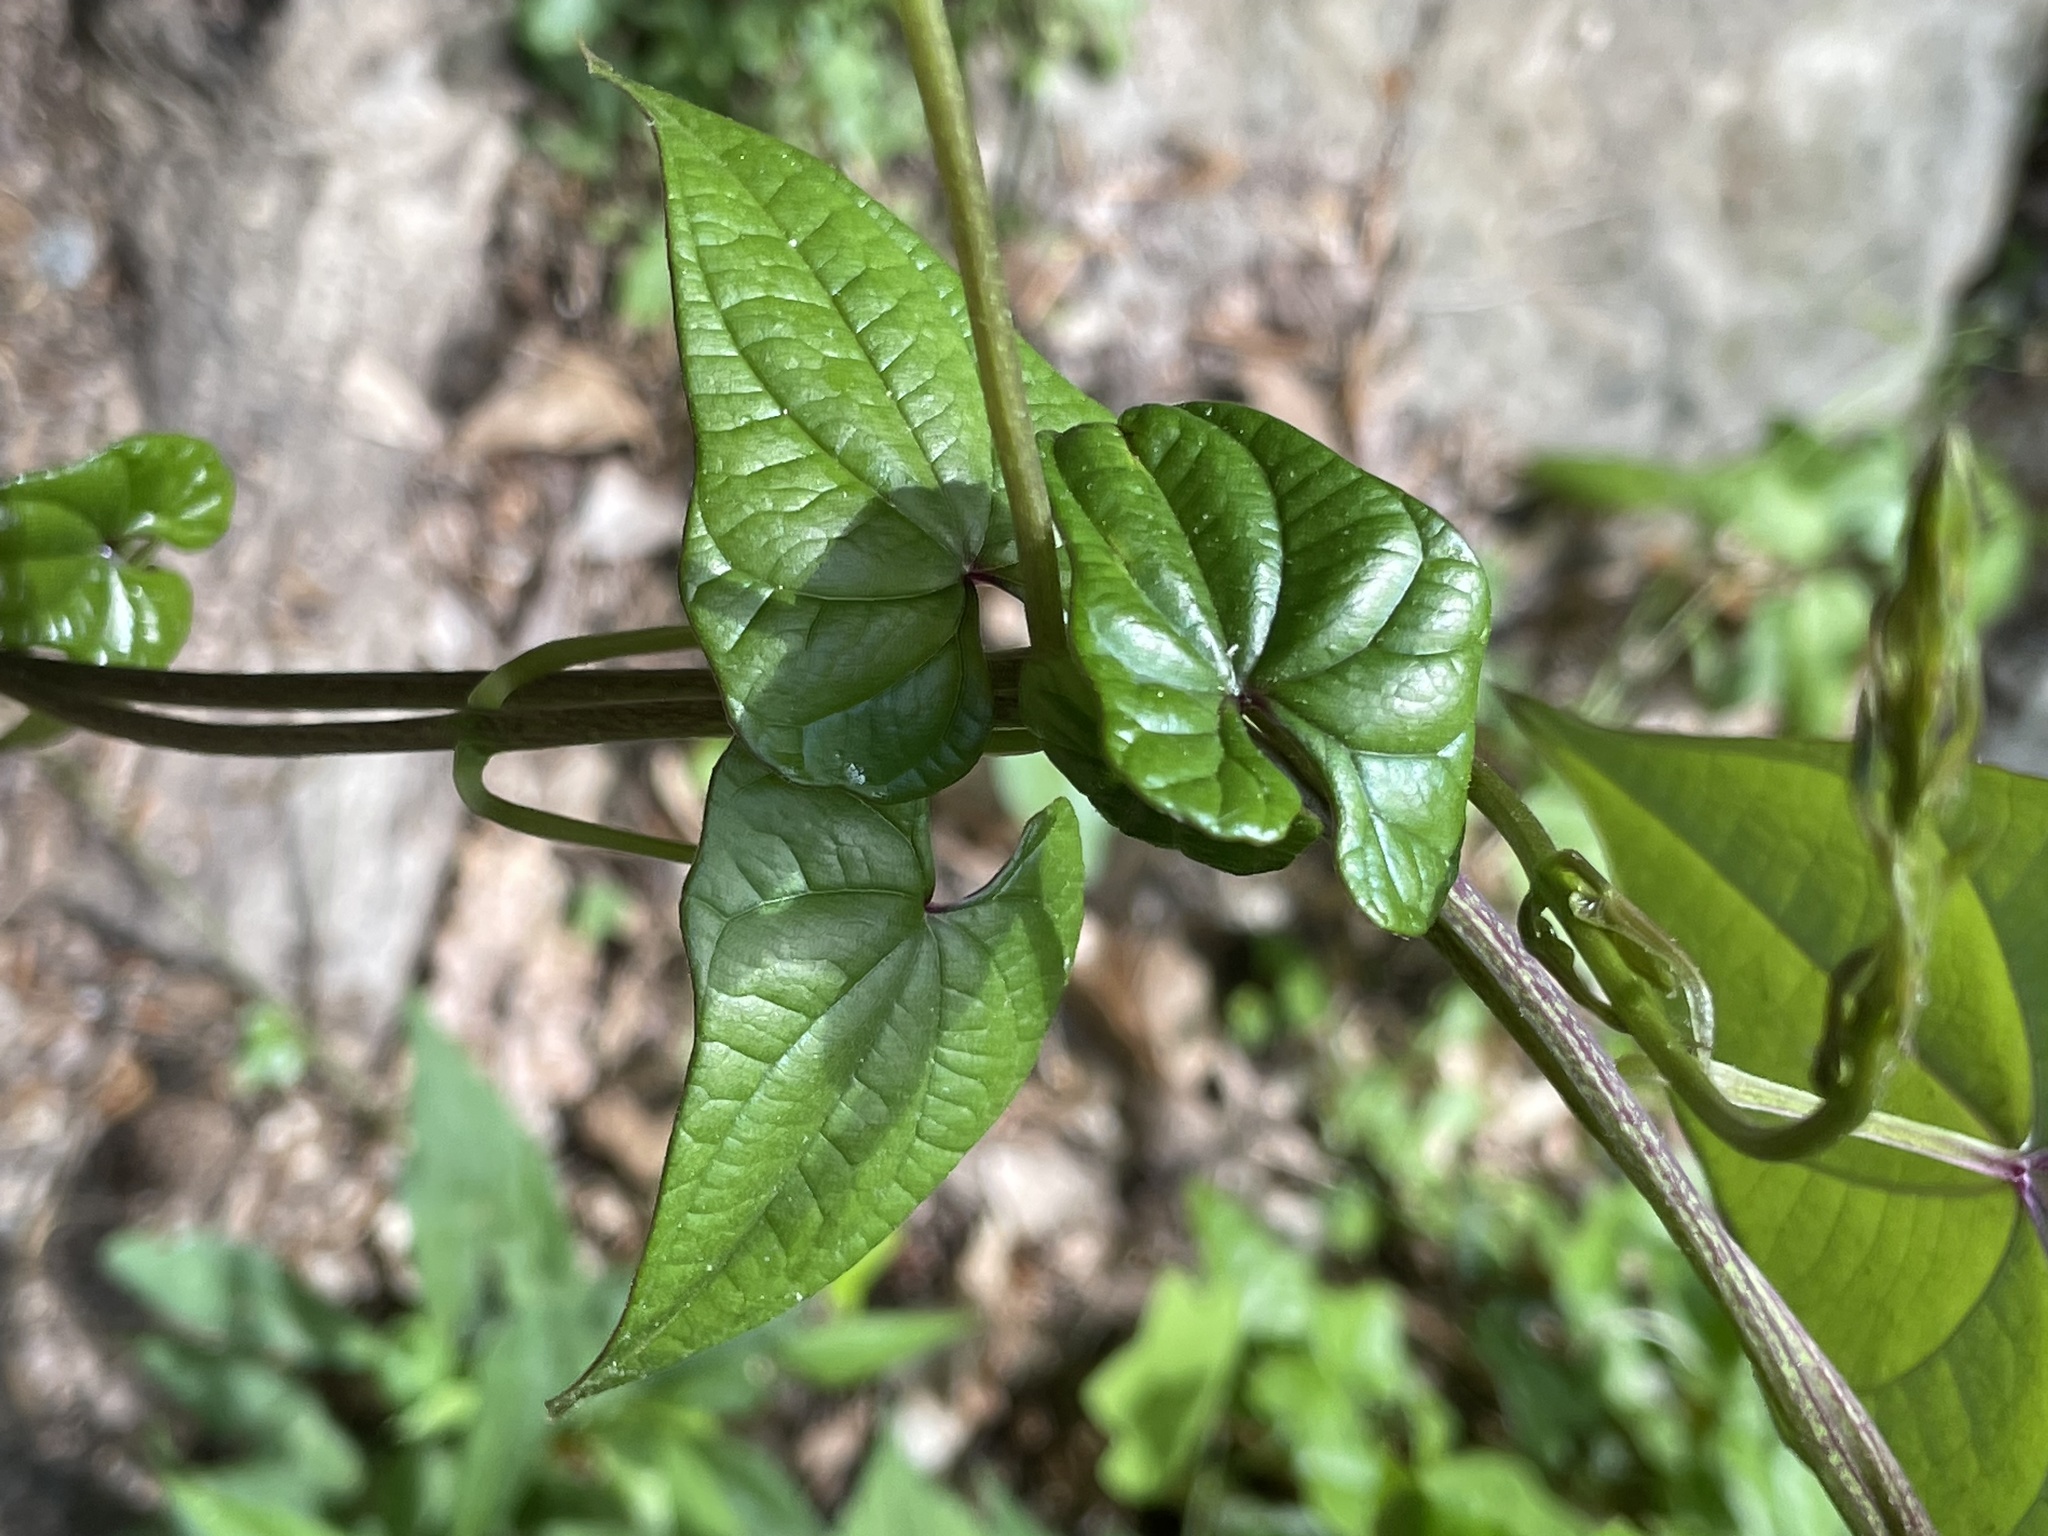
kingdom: Plantae
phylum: Tracheophyta
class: Liliopsida
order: Dioscoreales
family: Dioscoreaceae
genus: Dioscorea
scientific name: Dioscorea polystachya
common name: Chinese yam
